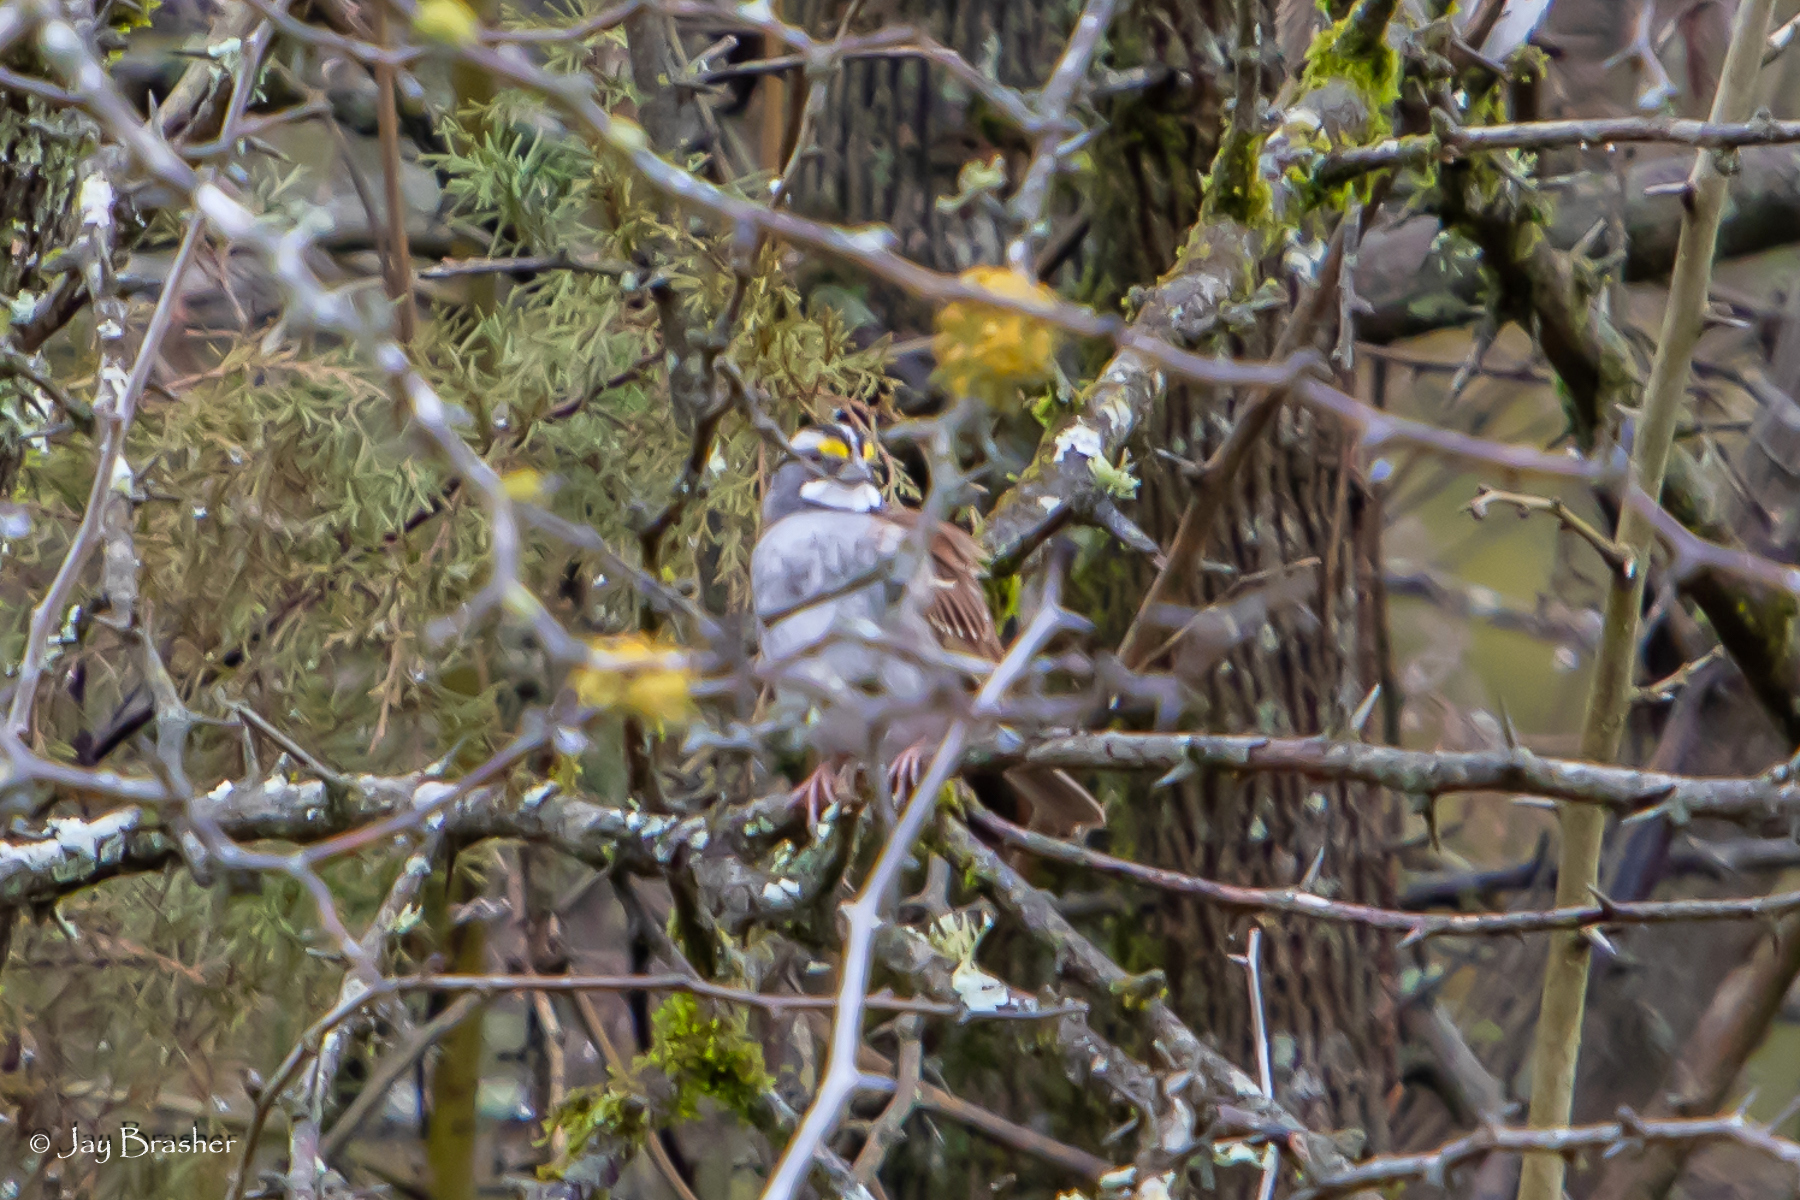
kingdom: Animalia
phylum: Chordata
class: Aves
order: Passeriformes
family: Passerellidae
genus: Zonotrichia
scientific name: Zonotrichia albicollis
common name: White-throated sparrow
